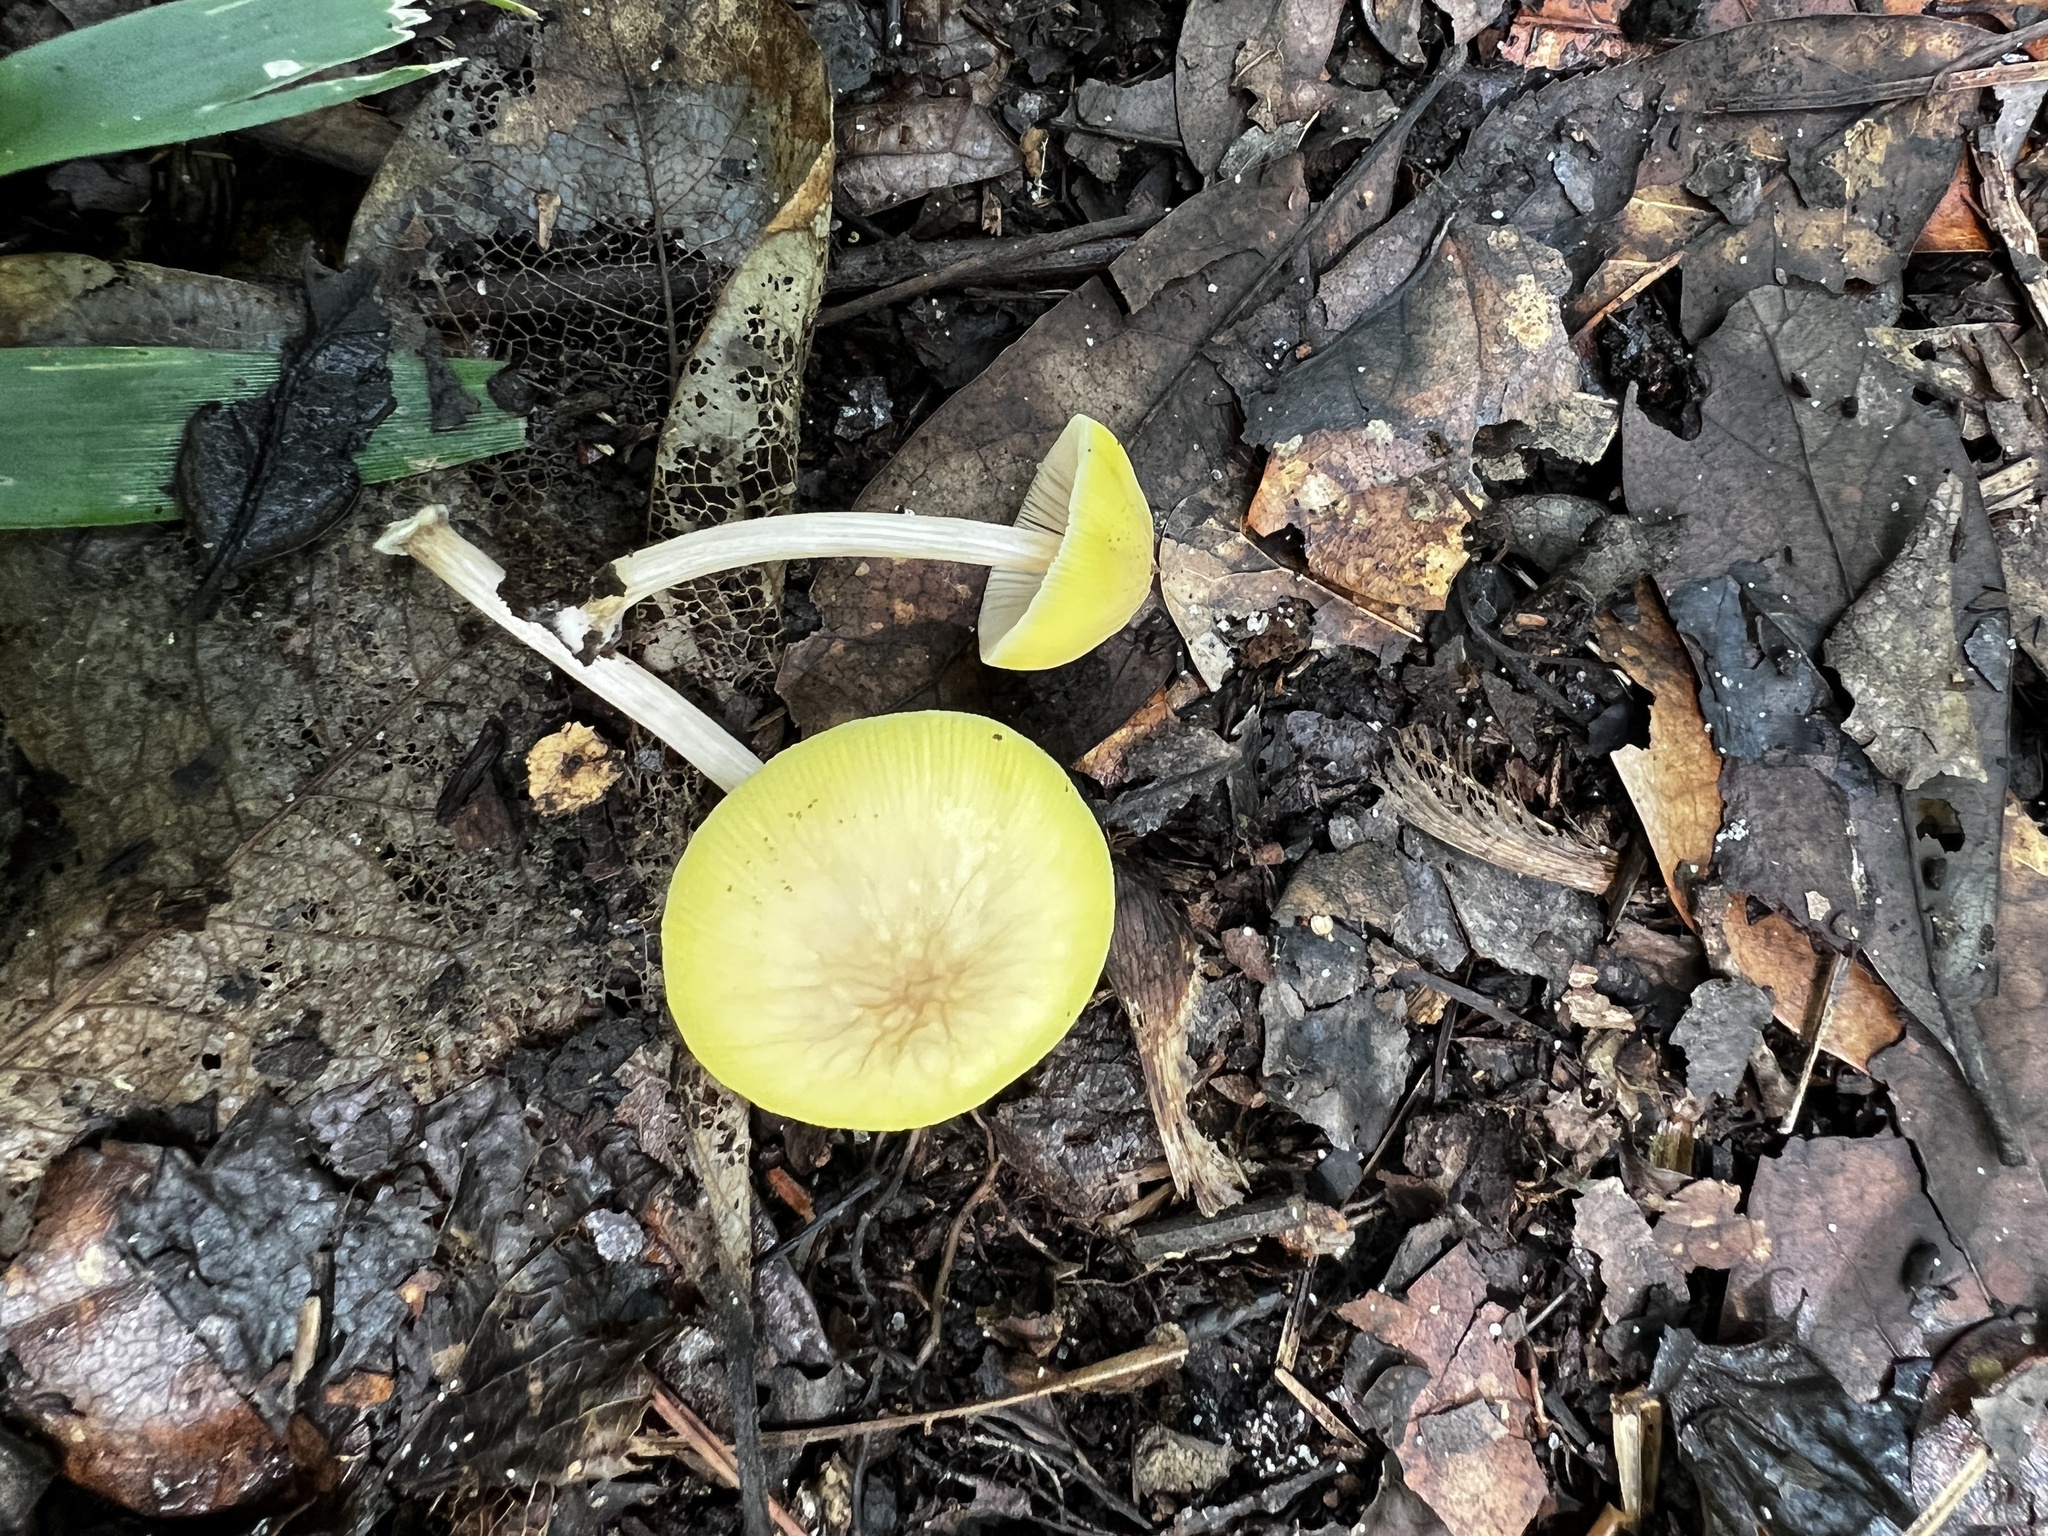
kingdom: Fungi
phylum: Basidiomycota
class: Agaricomycetes
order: Agaricales
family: Pluteaceae
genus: Pluteus
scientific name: Pluteus chrysaegis
